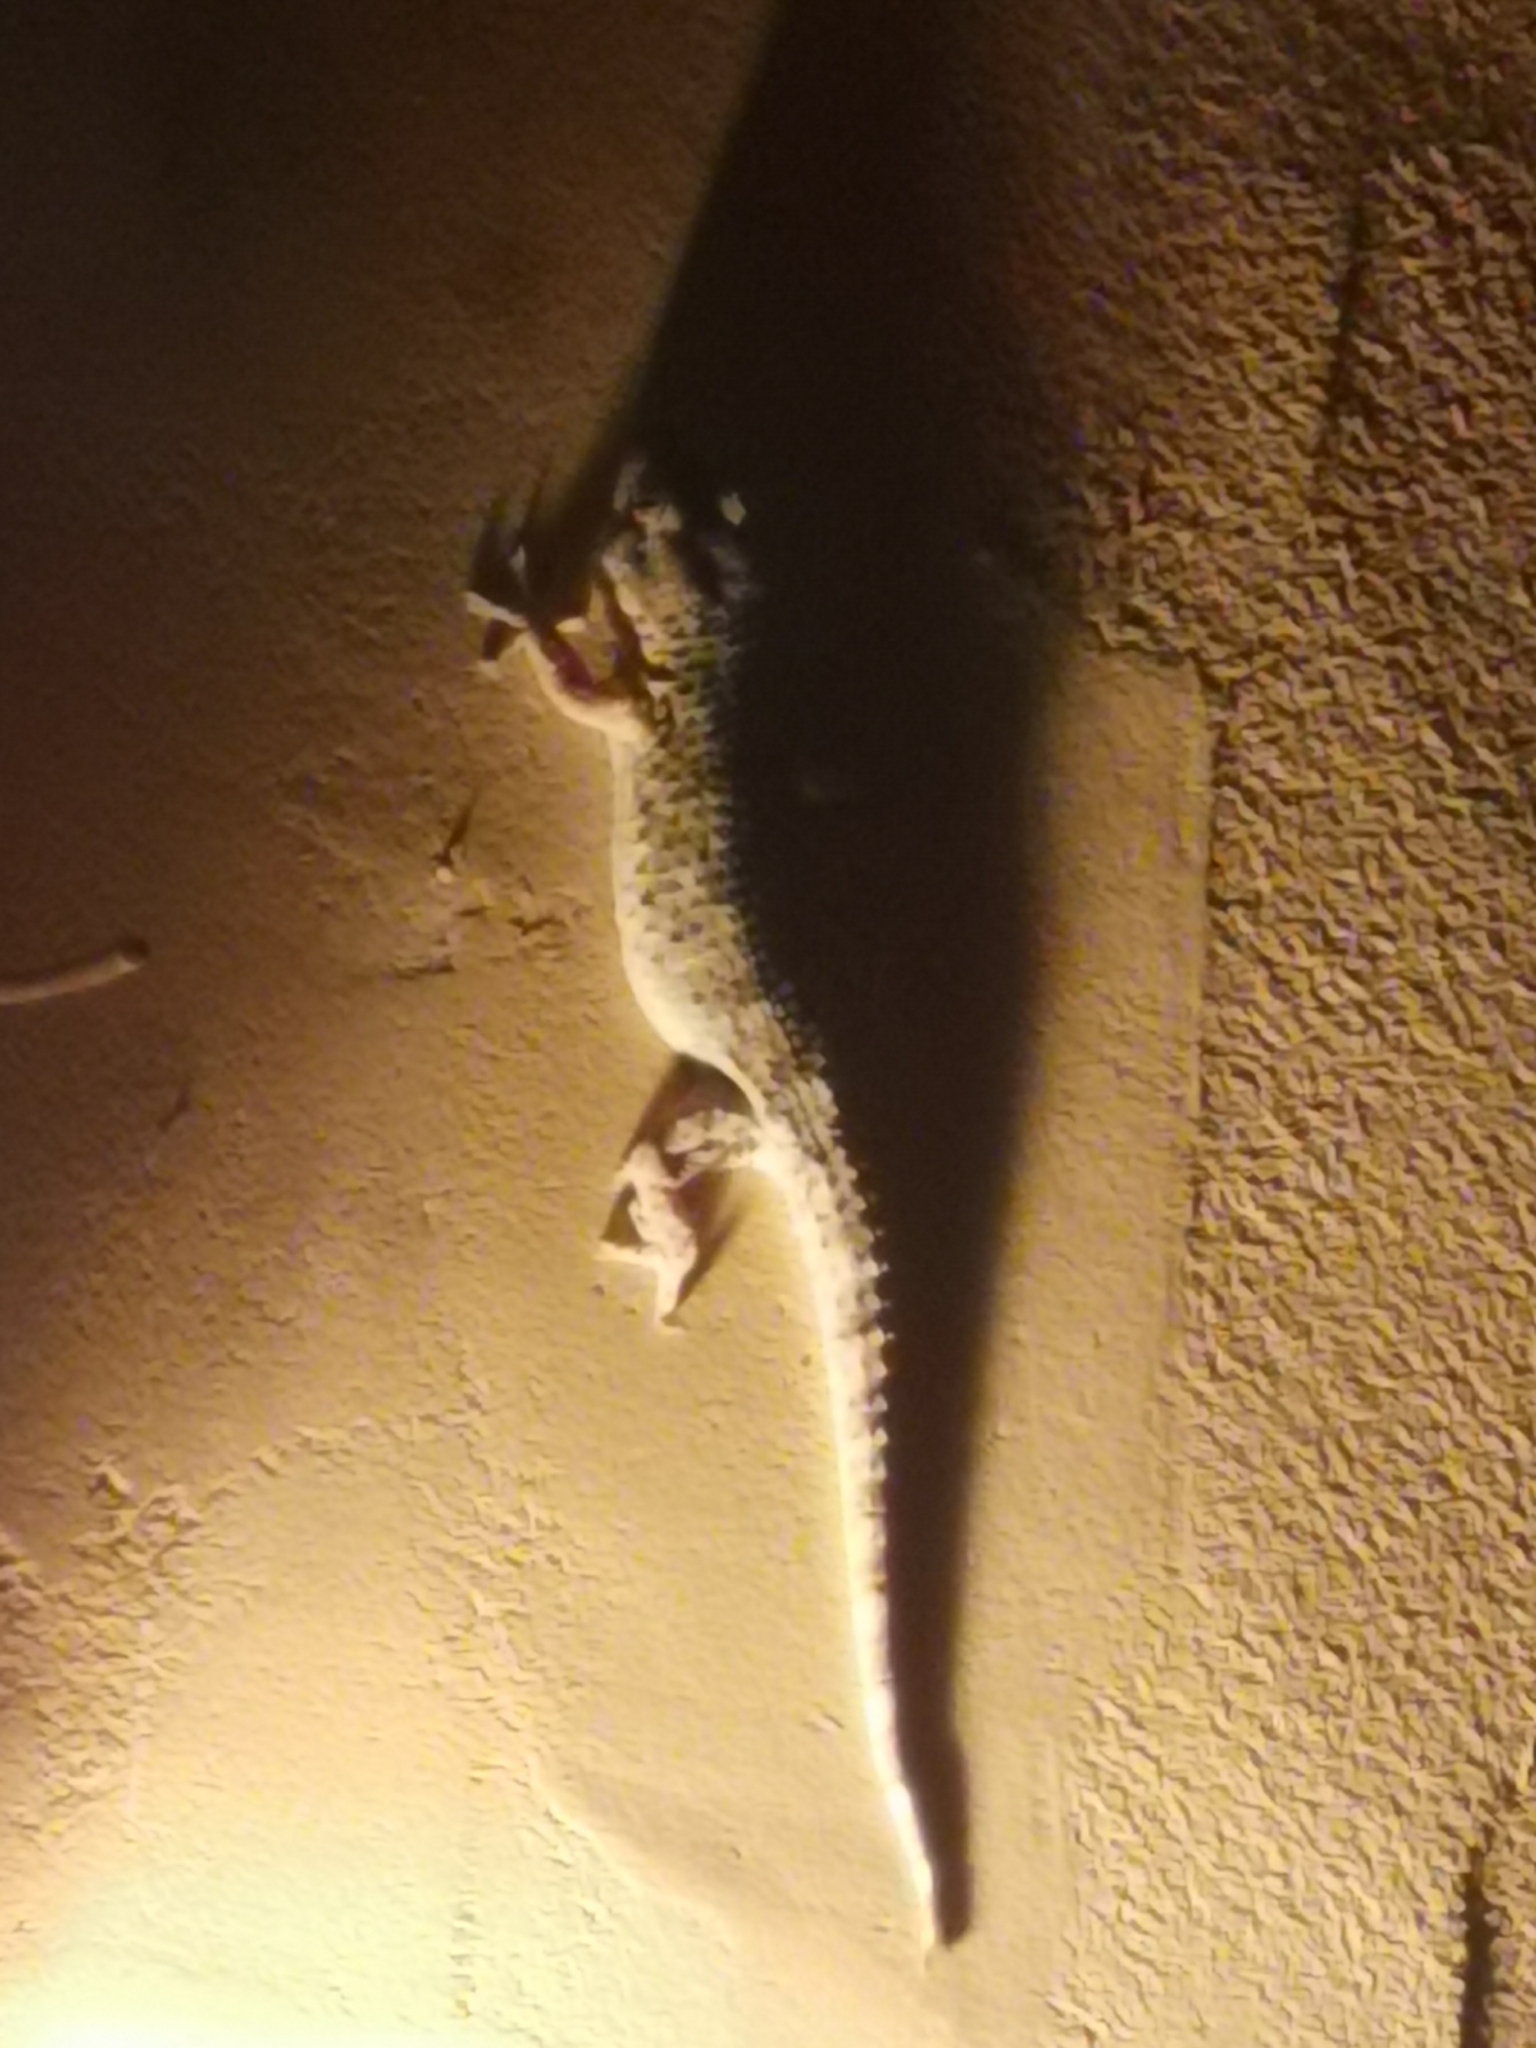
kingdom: Animalia
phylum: Chordata
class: Squamata
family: Phyllodactylidae
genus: Tarentola
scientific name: Tarentola mauritanica
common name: Moorish gecko
